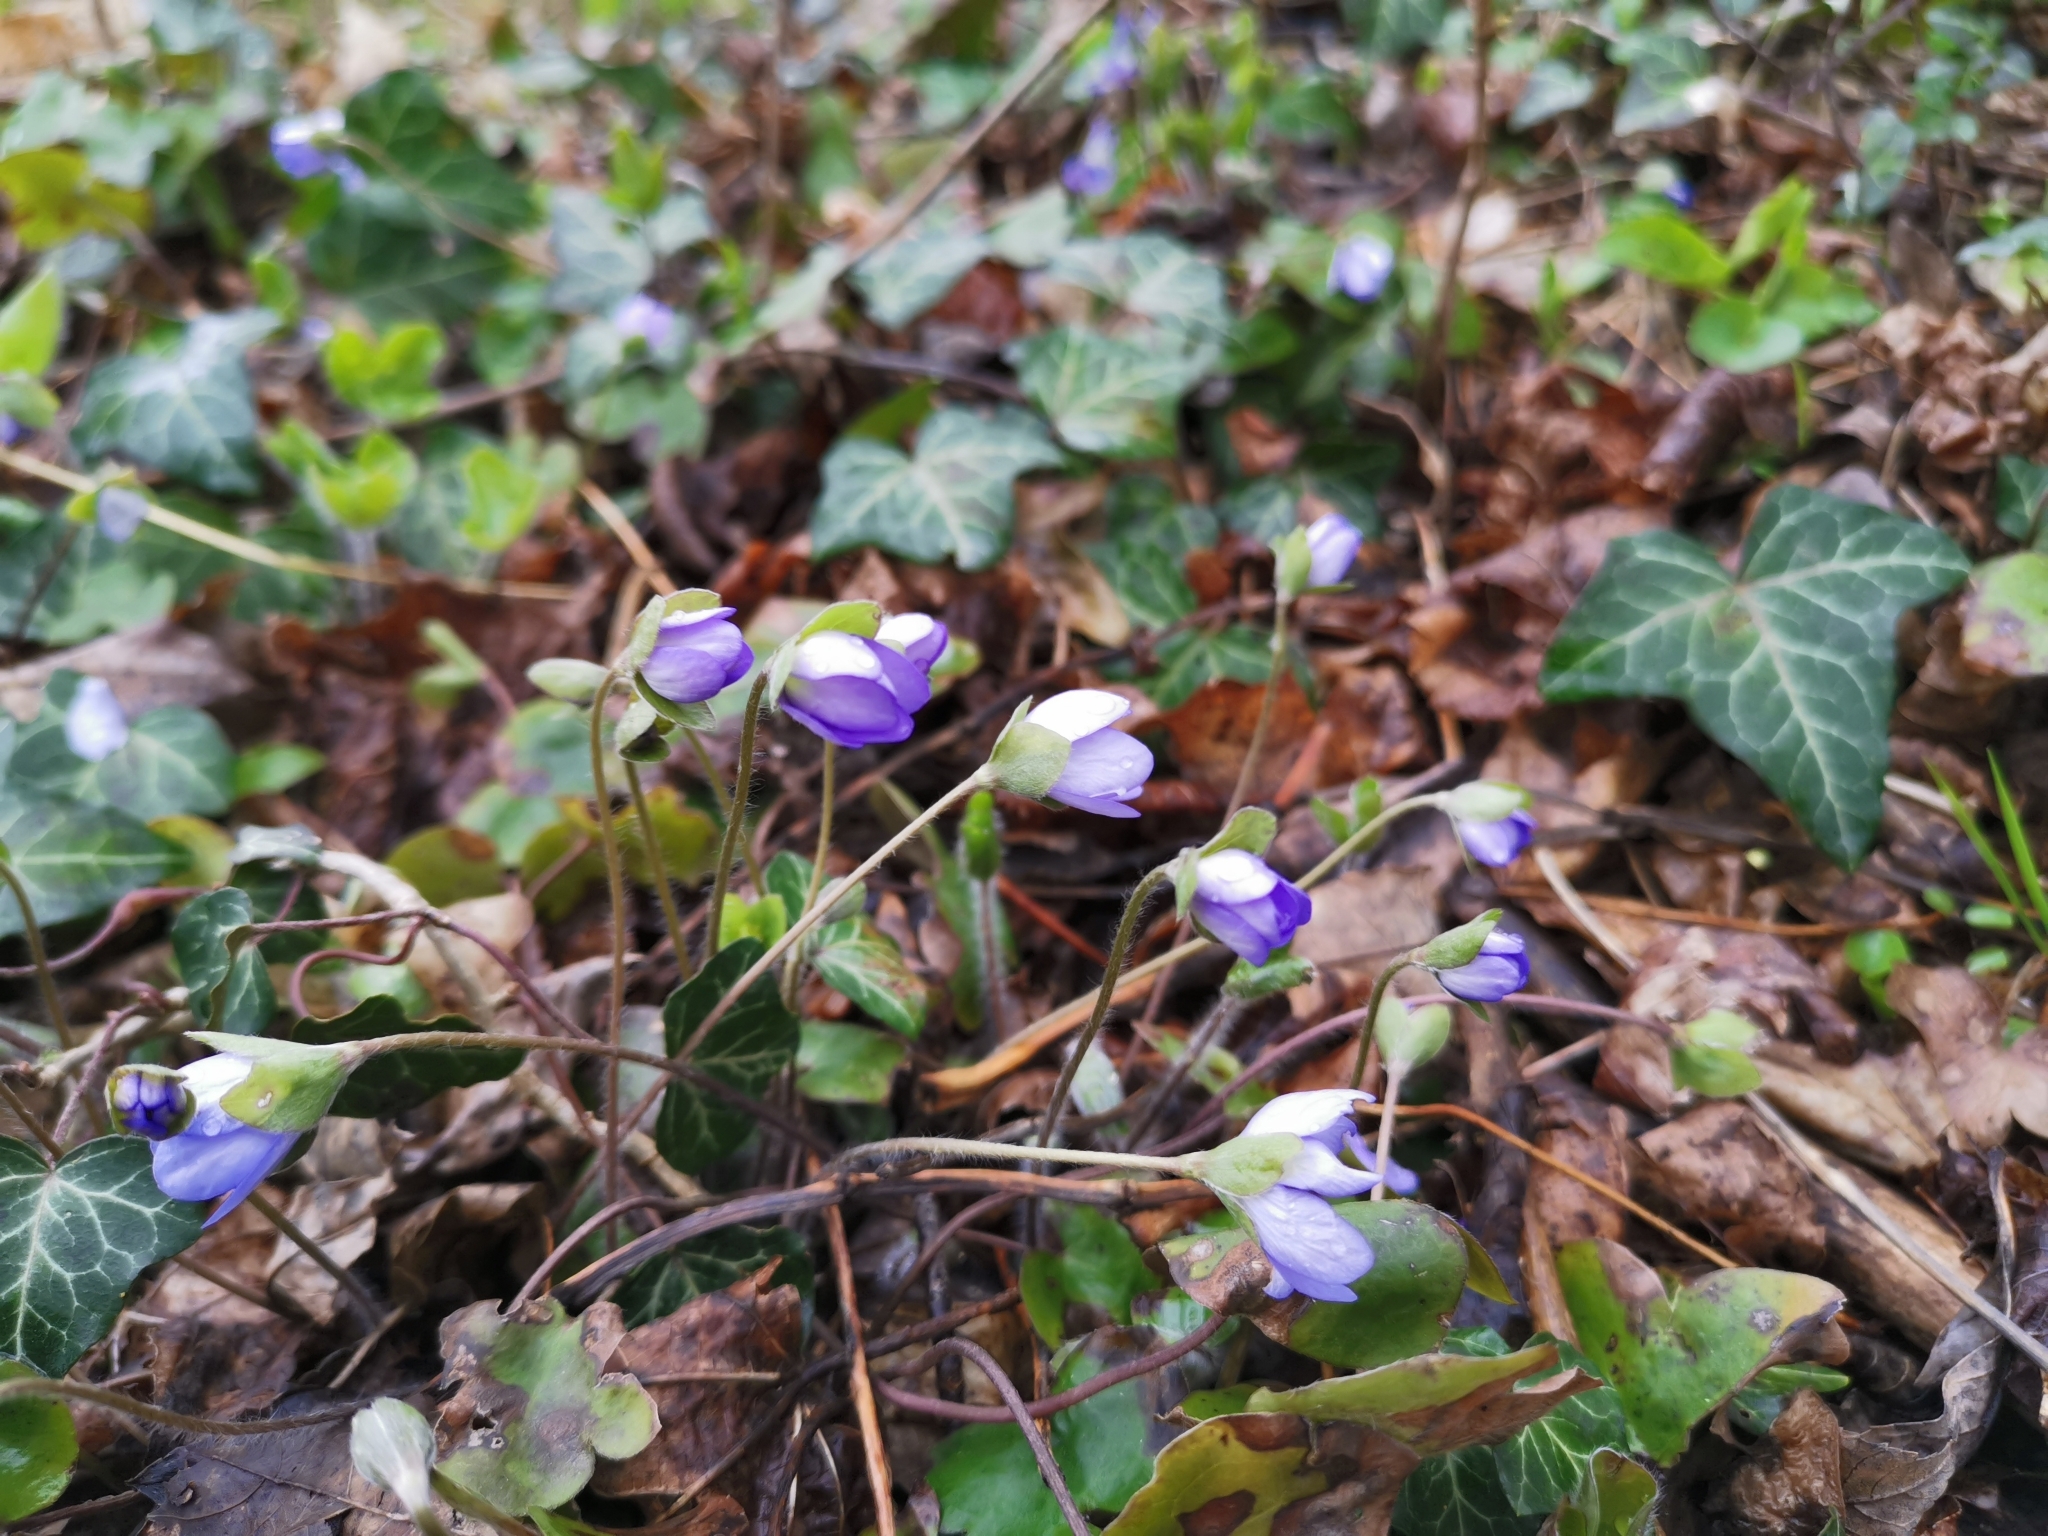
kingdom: Plantae
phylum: Tracheophyta
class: Magnoliopsida
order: Ranunculales
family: Ranunculaceae
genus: Hepatica
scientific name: Hepatica nobilis
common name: Liverleaf
